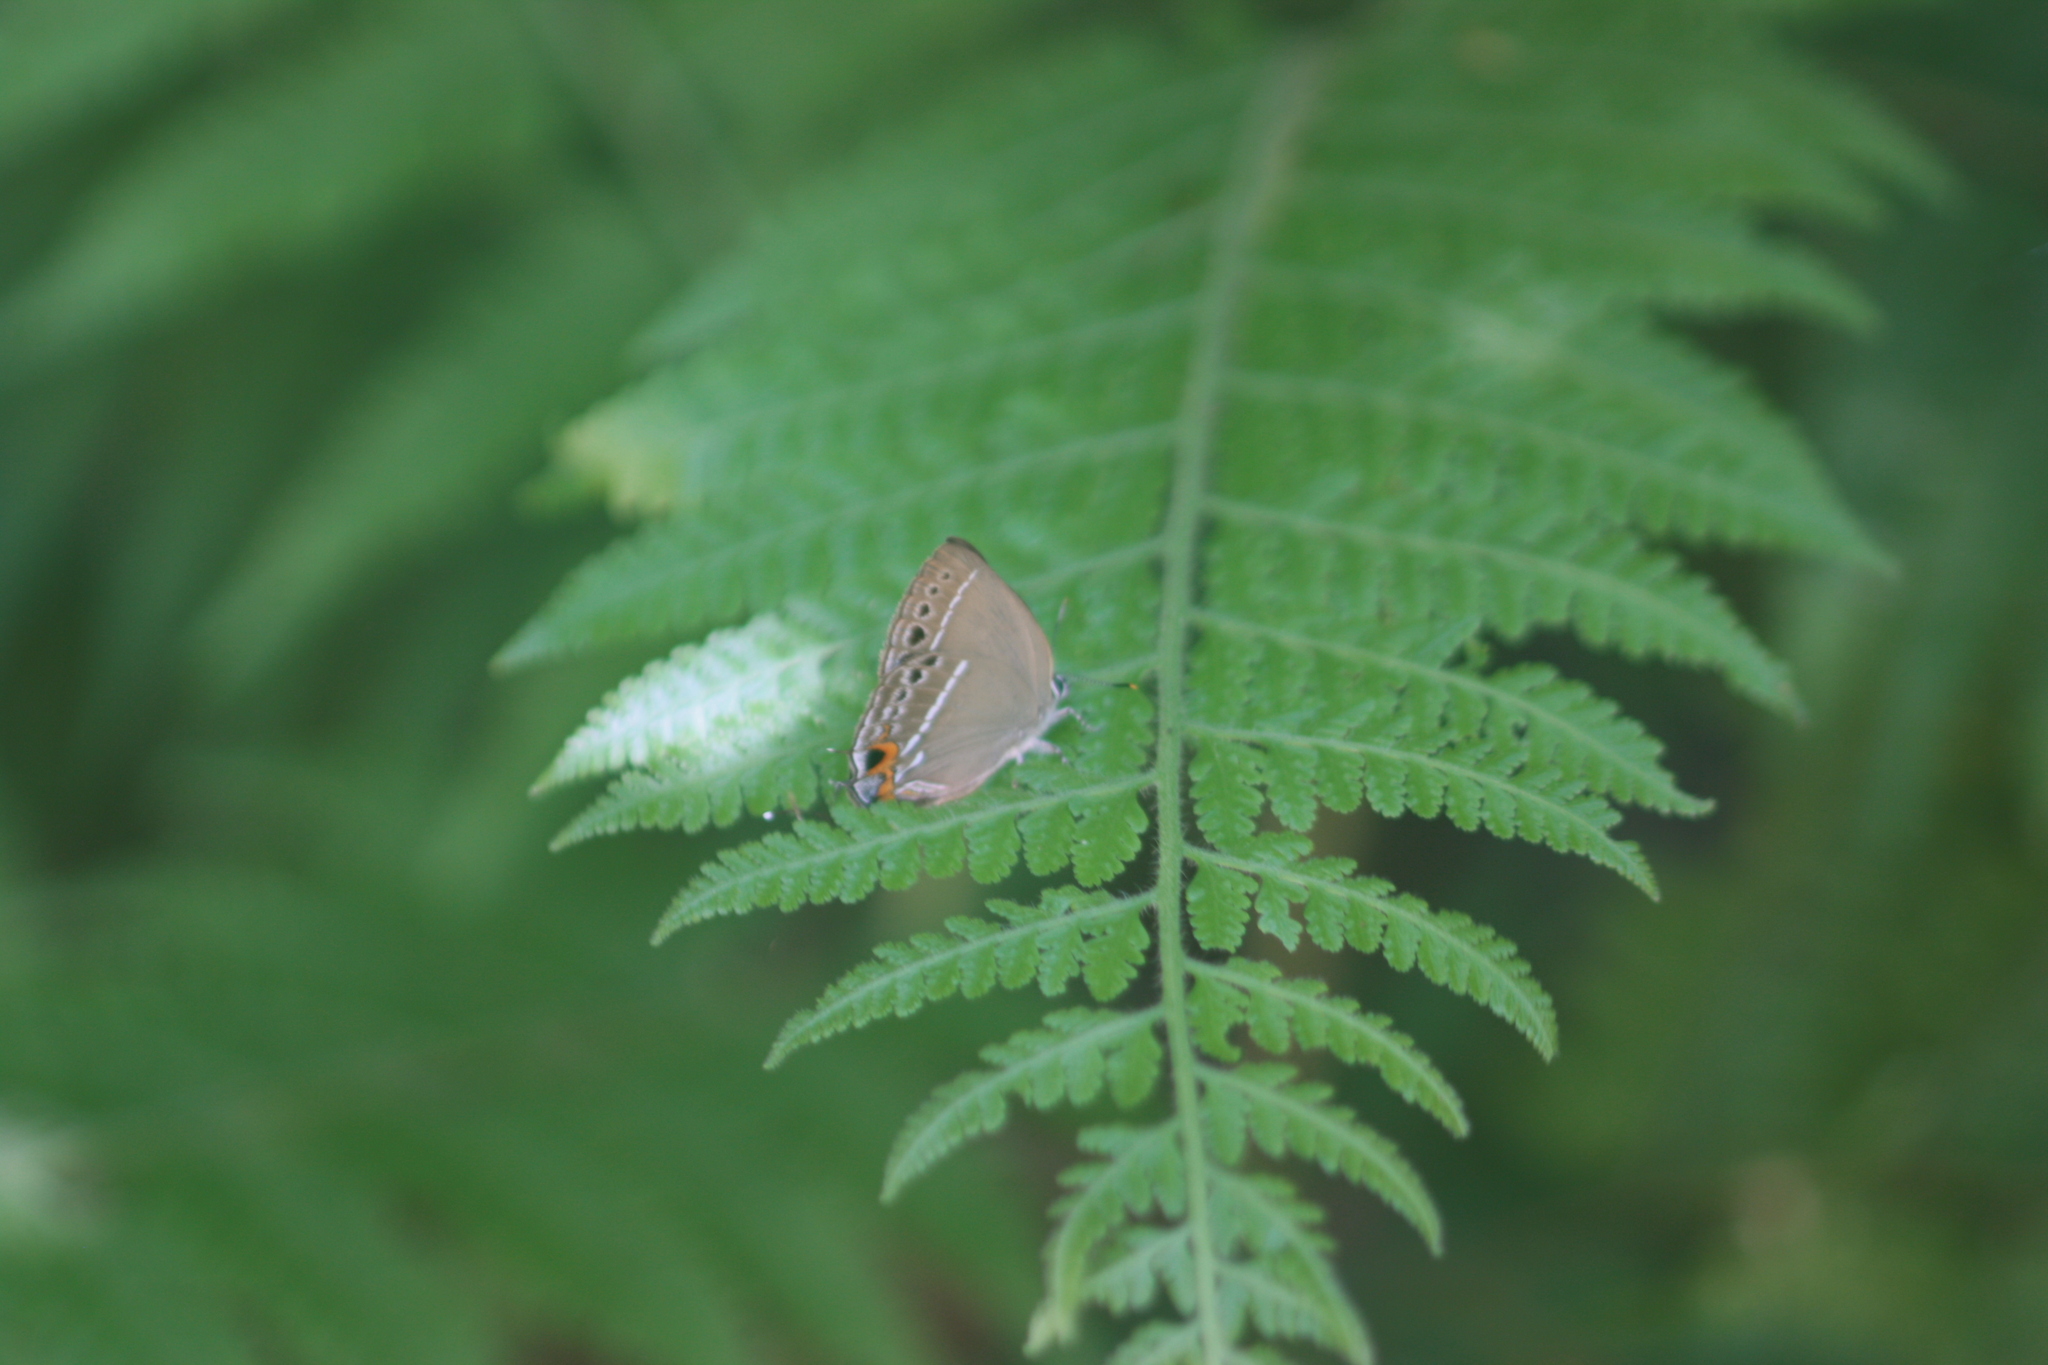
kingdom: Animalia
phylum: Arthropoda
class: Insecta
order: Lepidoptera
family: Lycaenidae
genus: Thecla
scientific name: Thecla formosana
